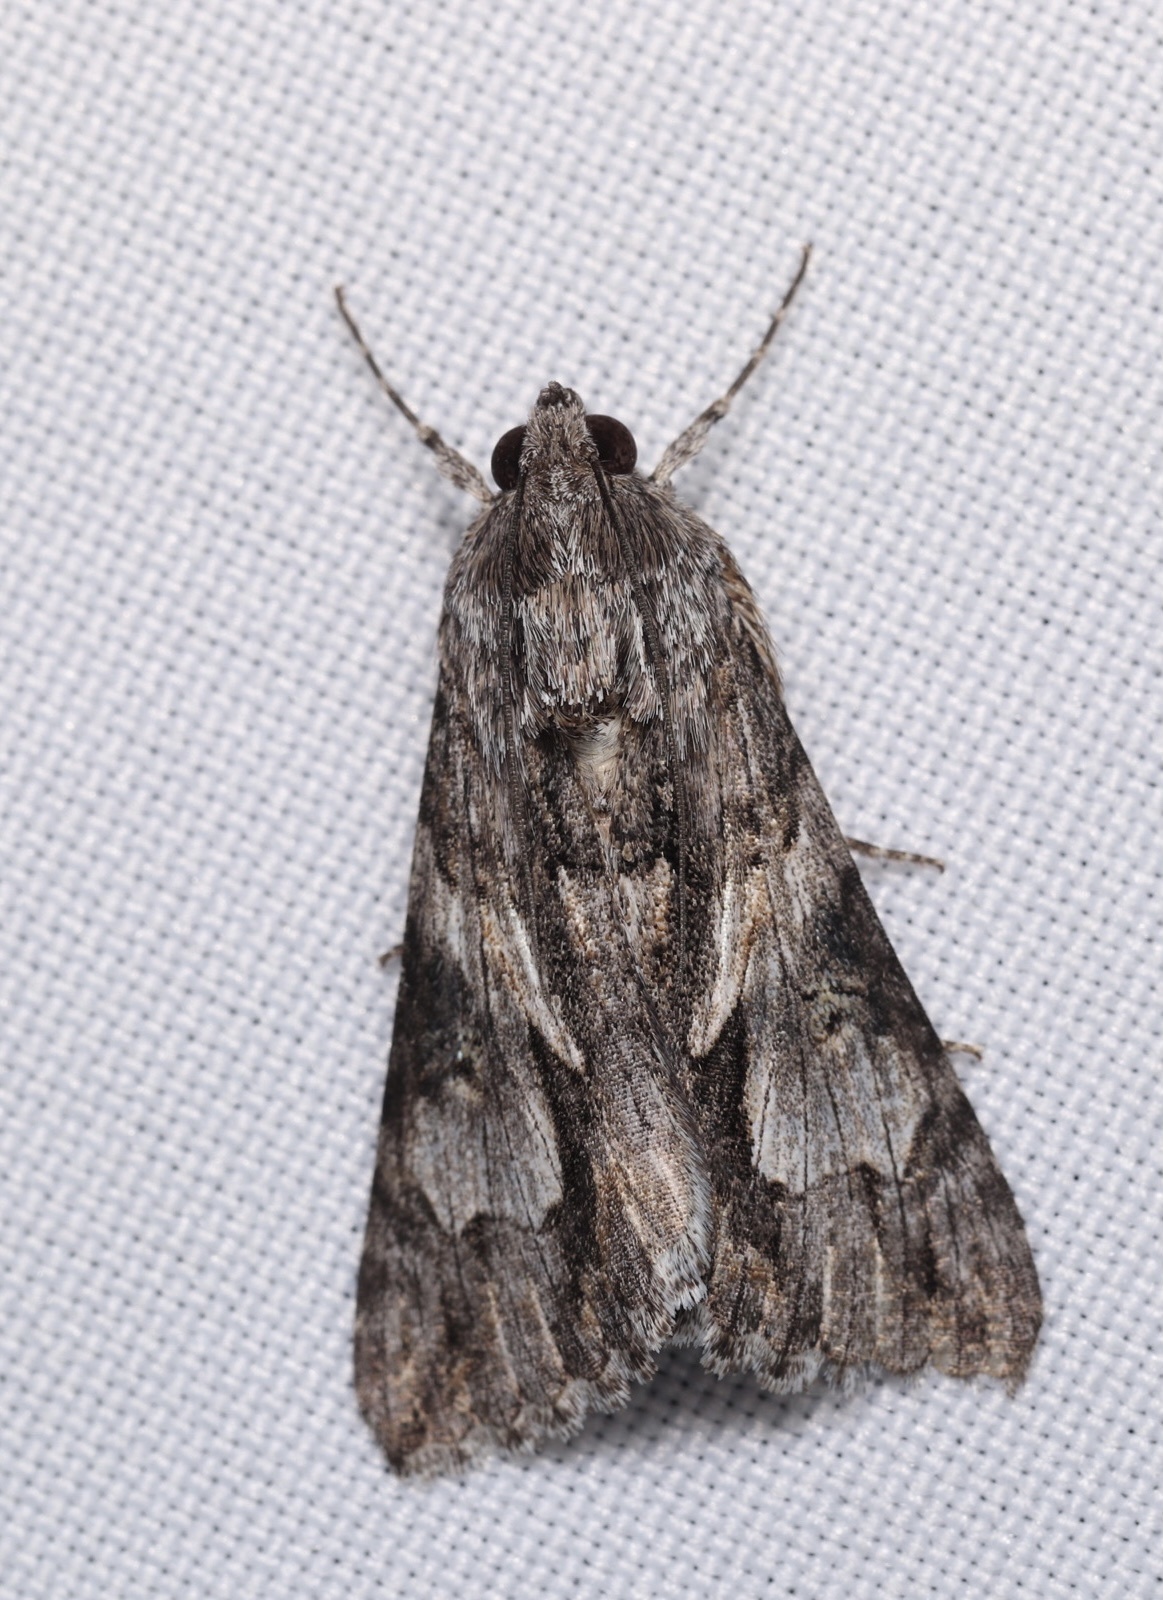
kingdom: Animalia
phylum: Arthropoda
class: Insecta
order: Lepidoptera
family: Erebidae
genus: Melipotis
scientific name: Melipotis jucunda
